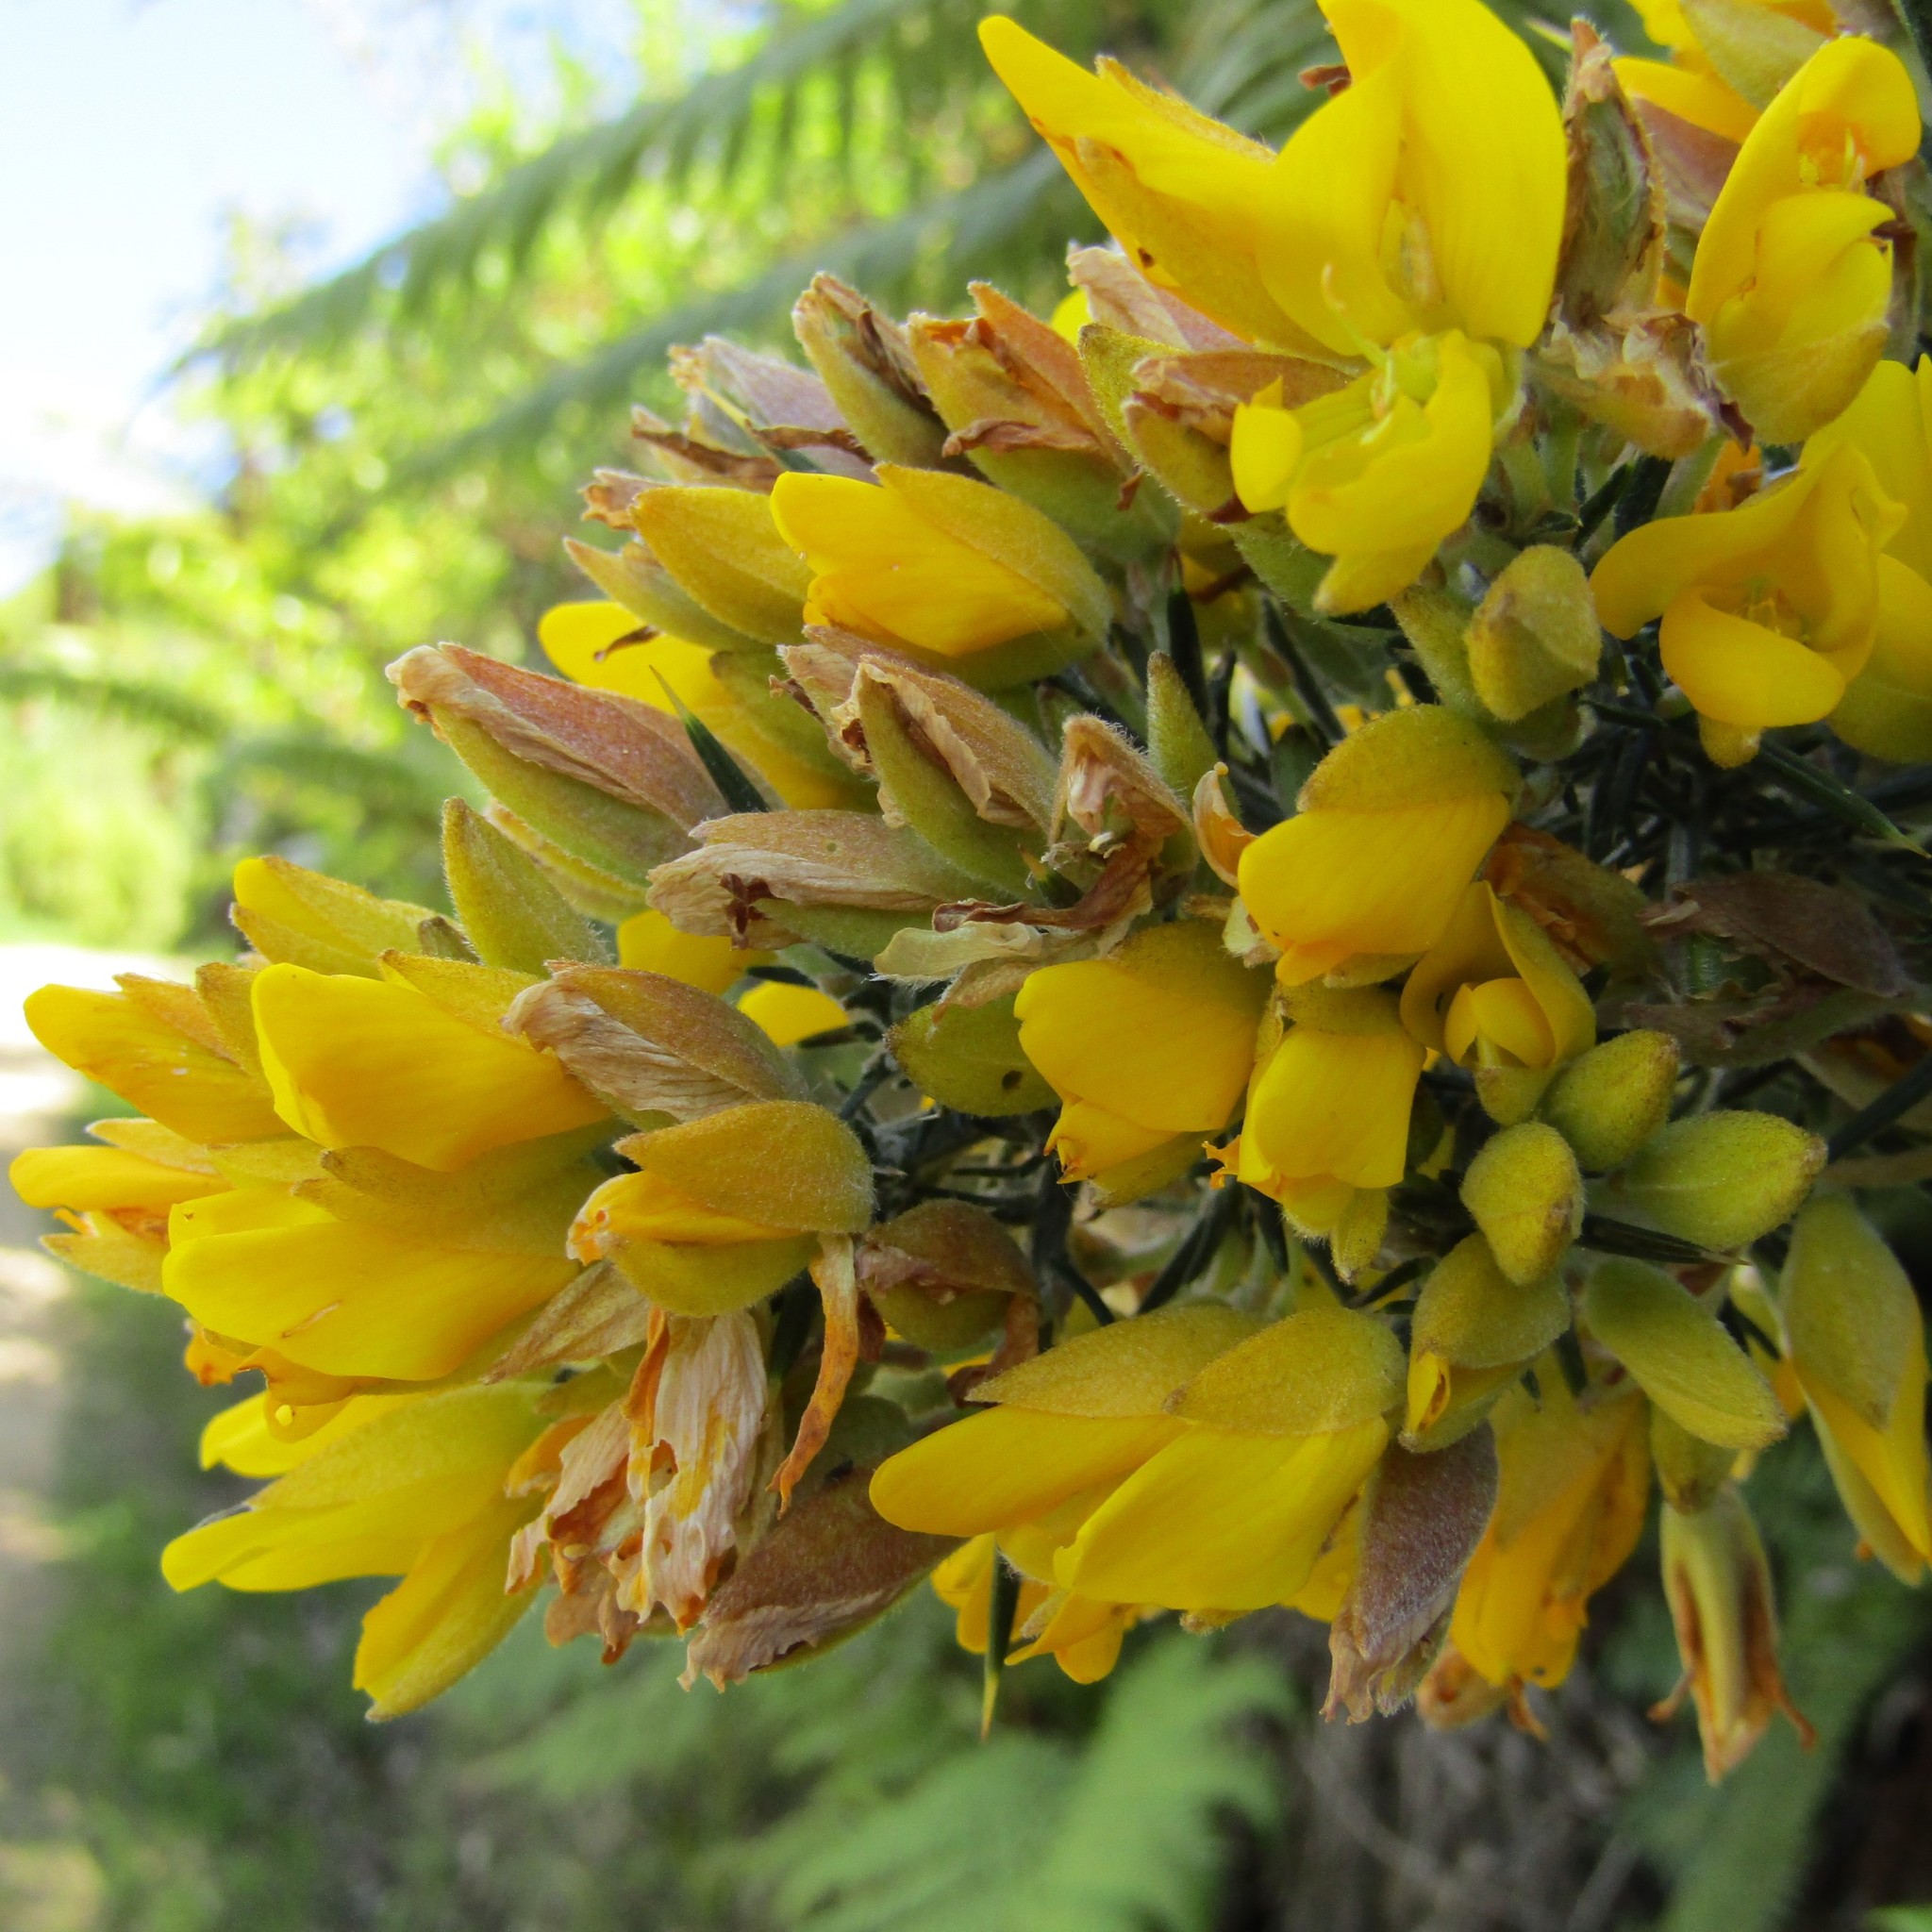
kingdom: Plantae
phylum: Tracheophyta
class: Magnoliopsida
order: Fabales
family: Fabaceae
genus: Ulex
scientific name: Ulex europaeus
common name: Common gorse
